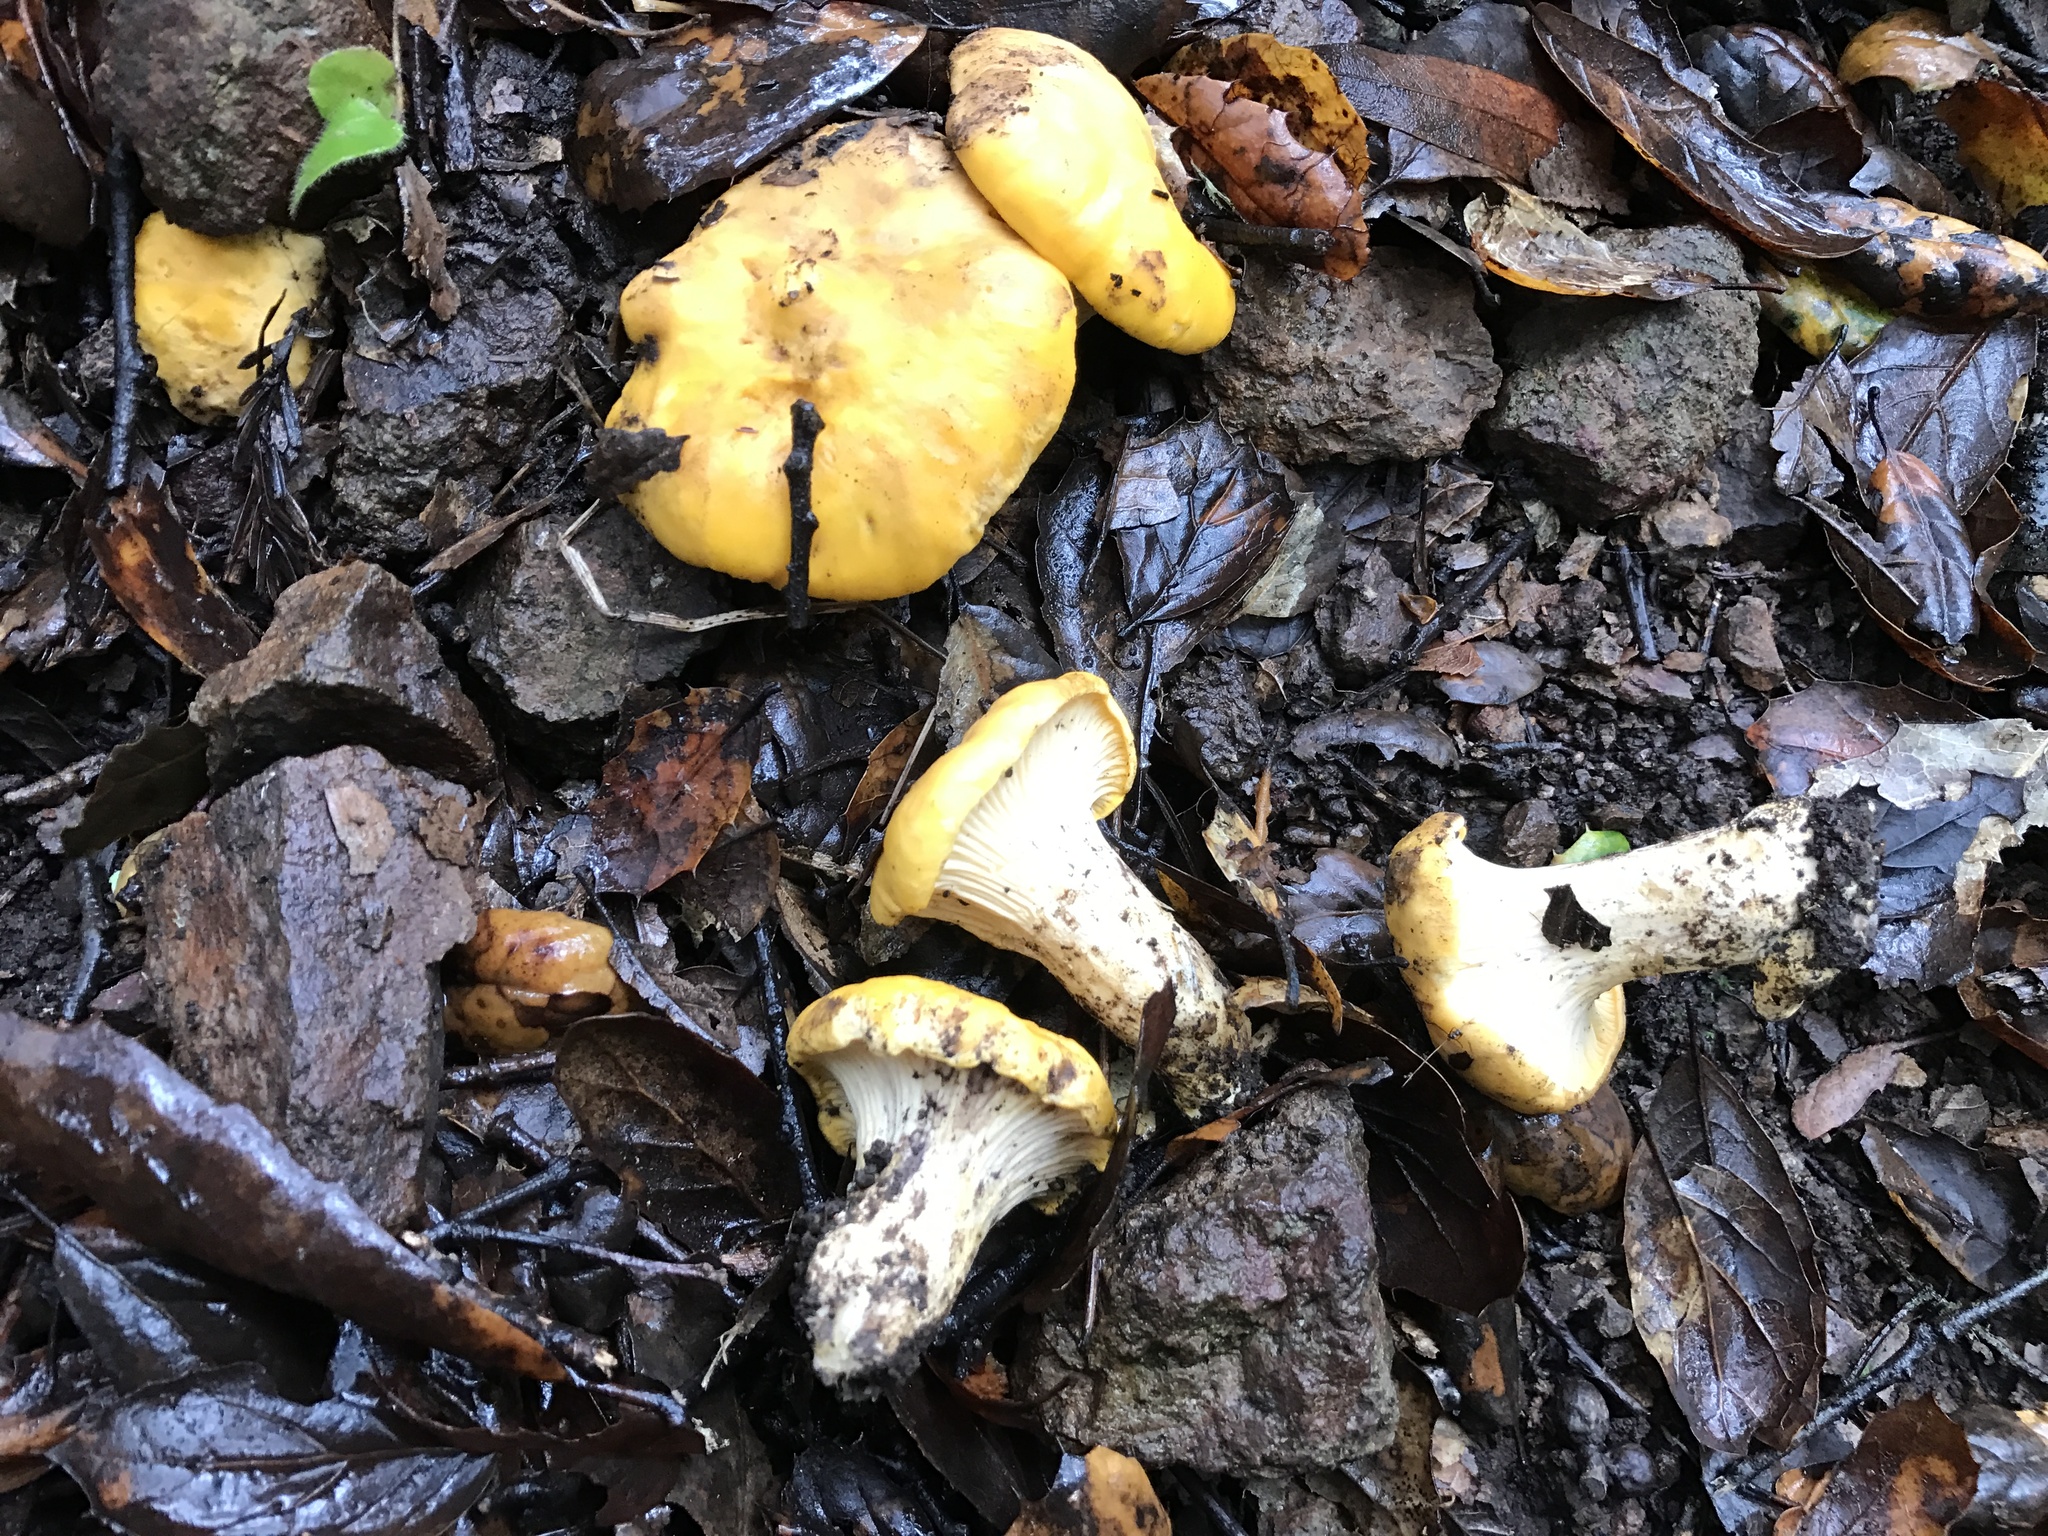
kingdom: Fungi
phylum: Basidiomycota
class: Agaricomycetes
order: Cantharellales
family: Hydnaceae
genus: Cantharellus
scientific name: Cantharellus californicus
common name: California golden chanterelle
